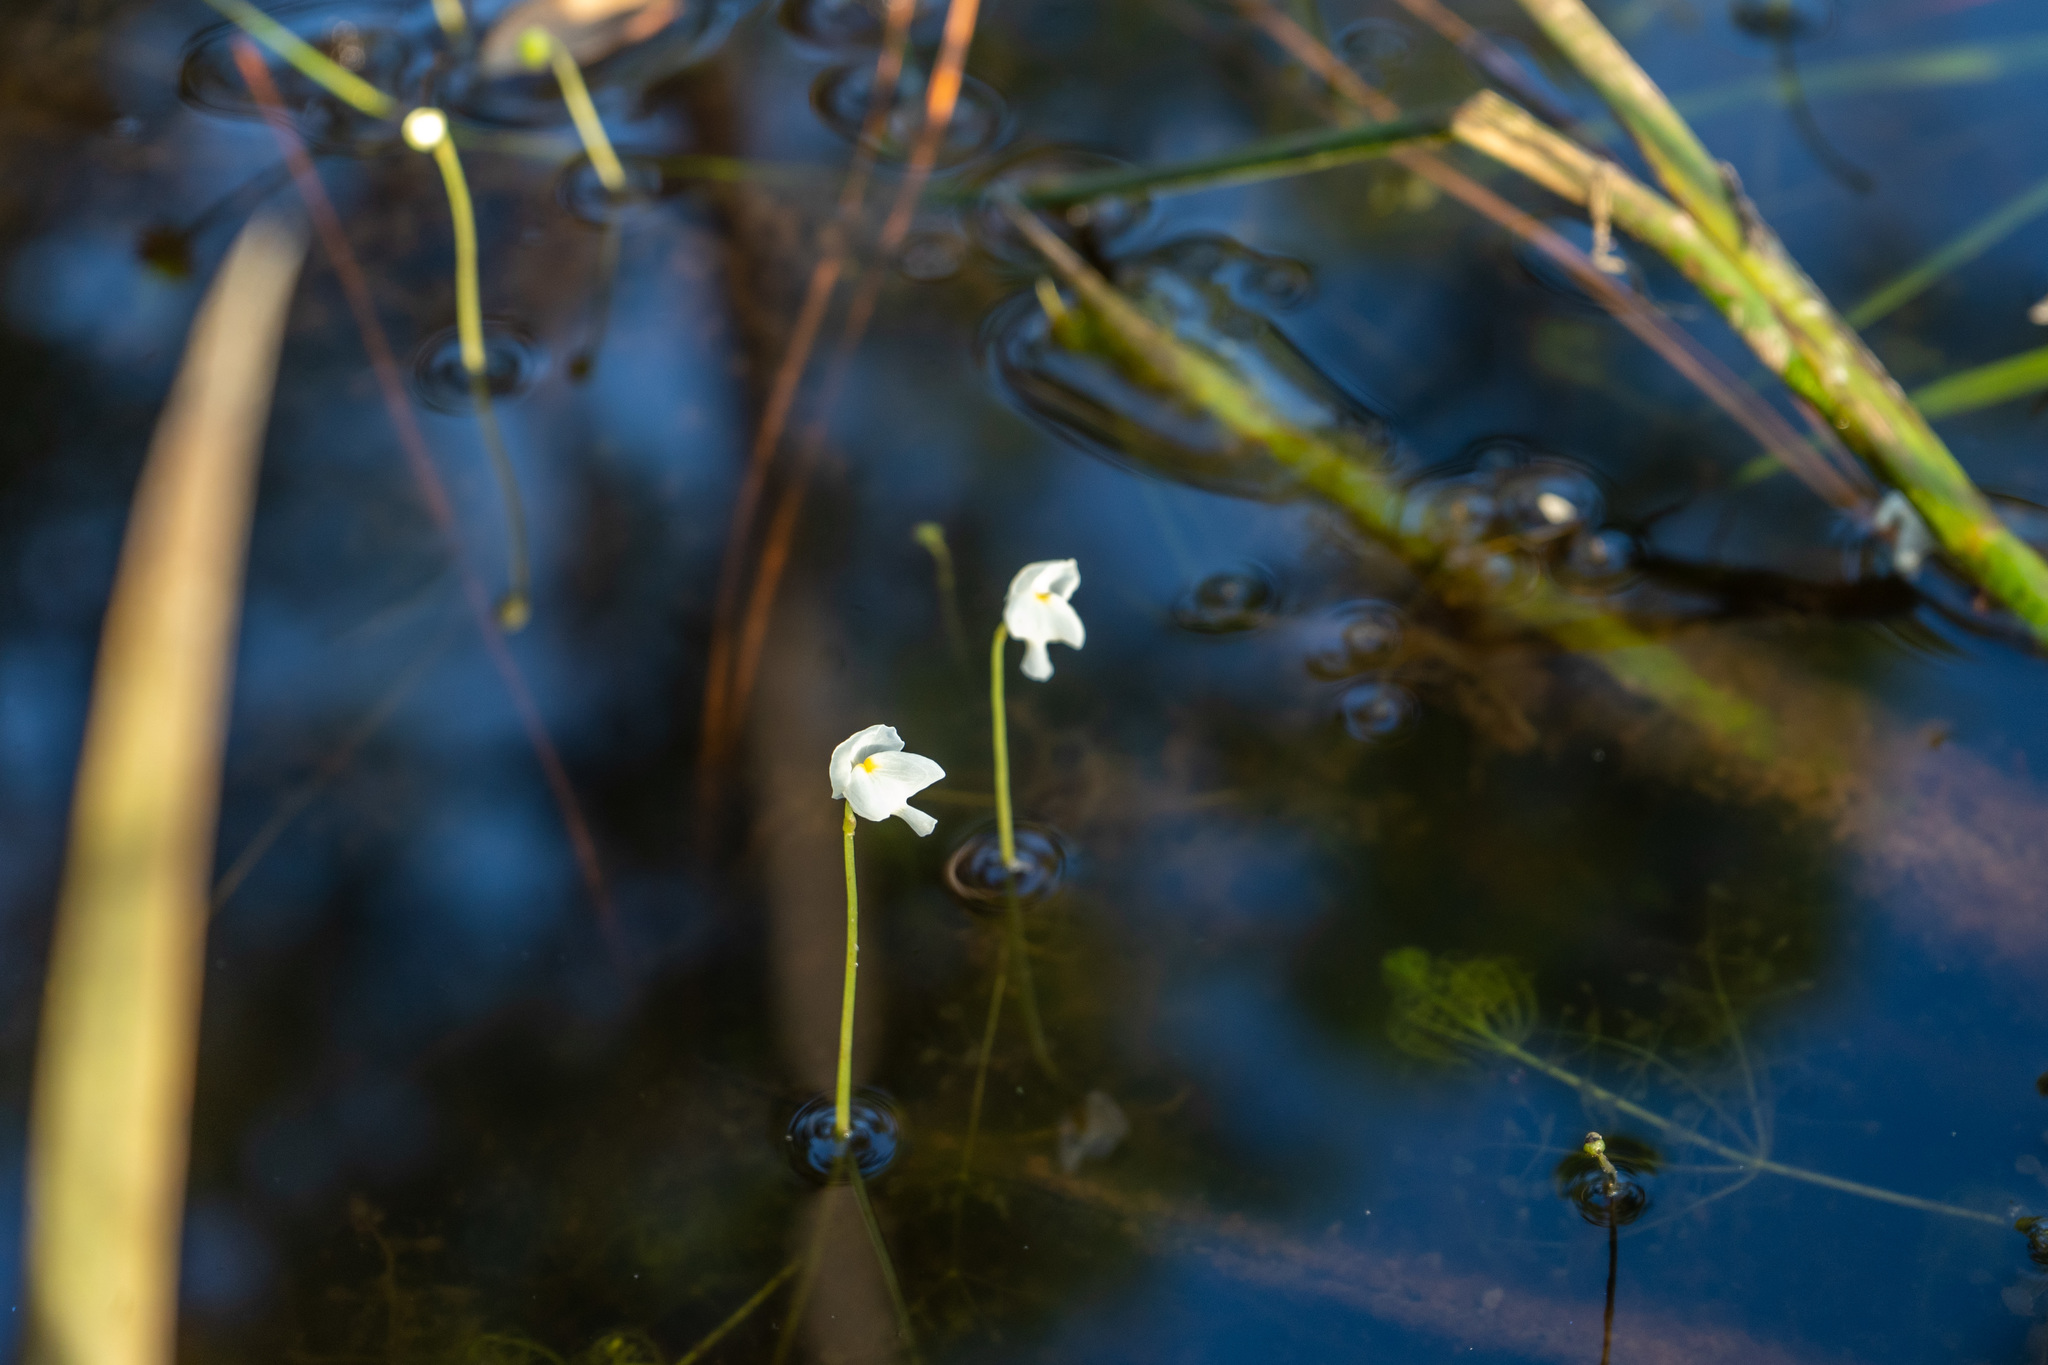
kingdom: Plantae
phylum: Tracheophyta
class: Magnoliopsida
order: Lamiales
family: Lentibulariaceae
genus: Utricularia
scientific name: Utricularia purpurea
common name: Eastern purple bladderwort
